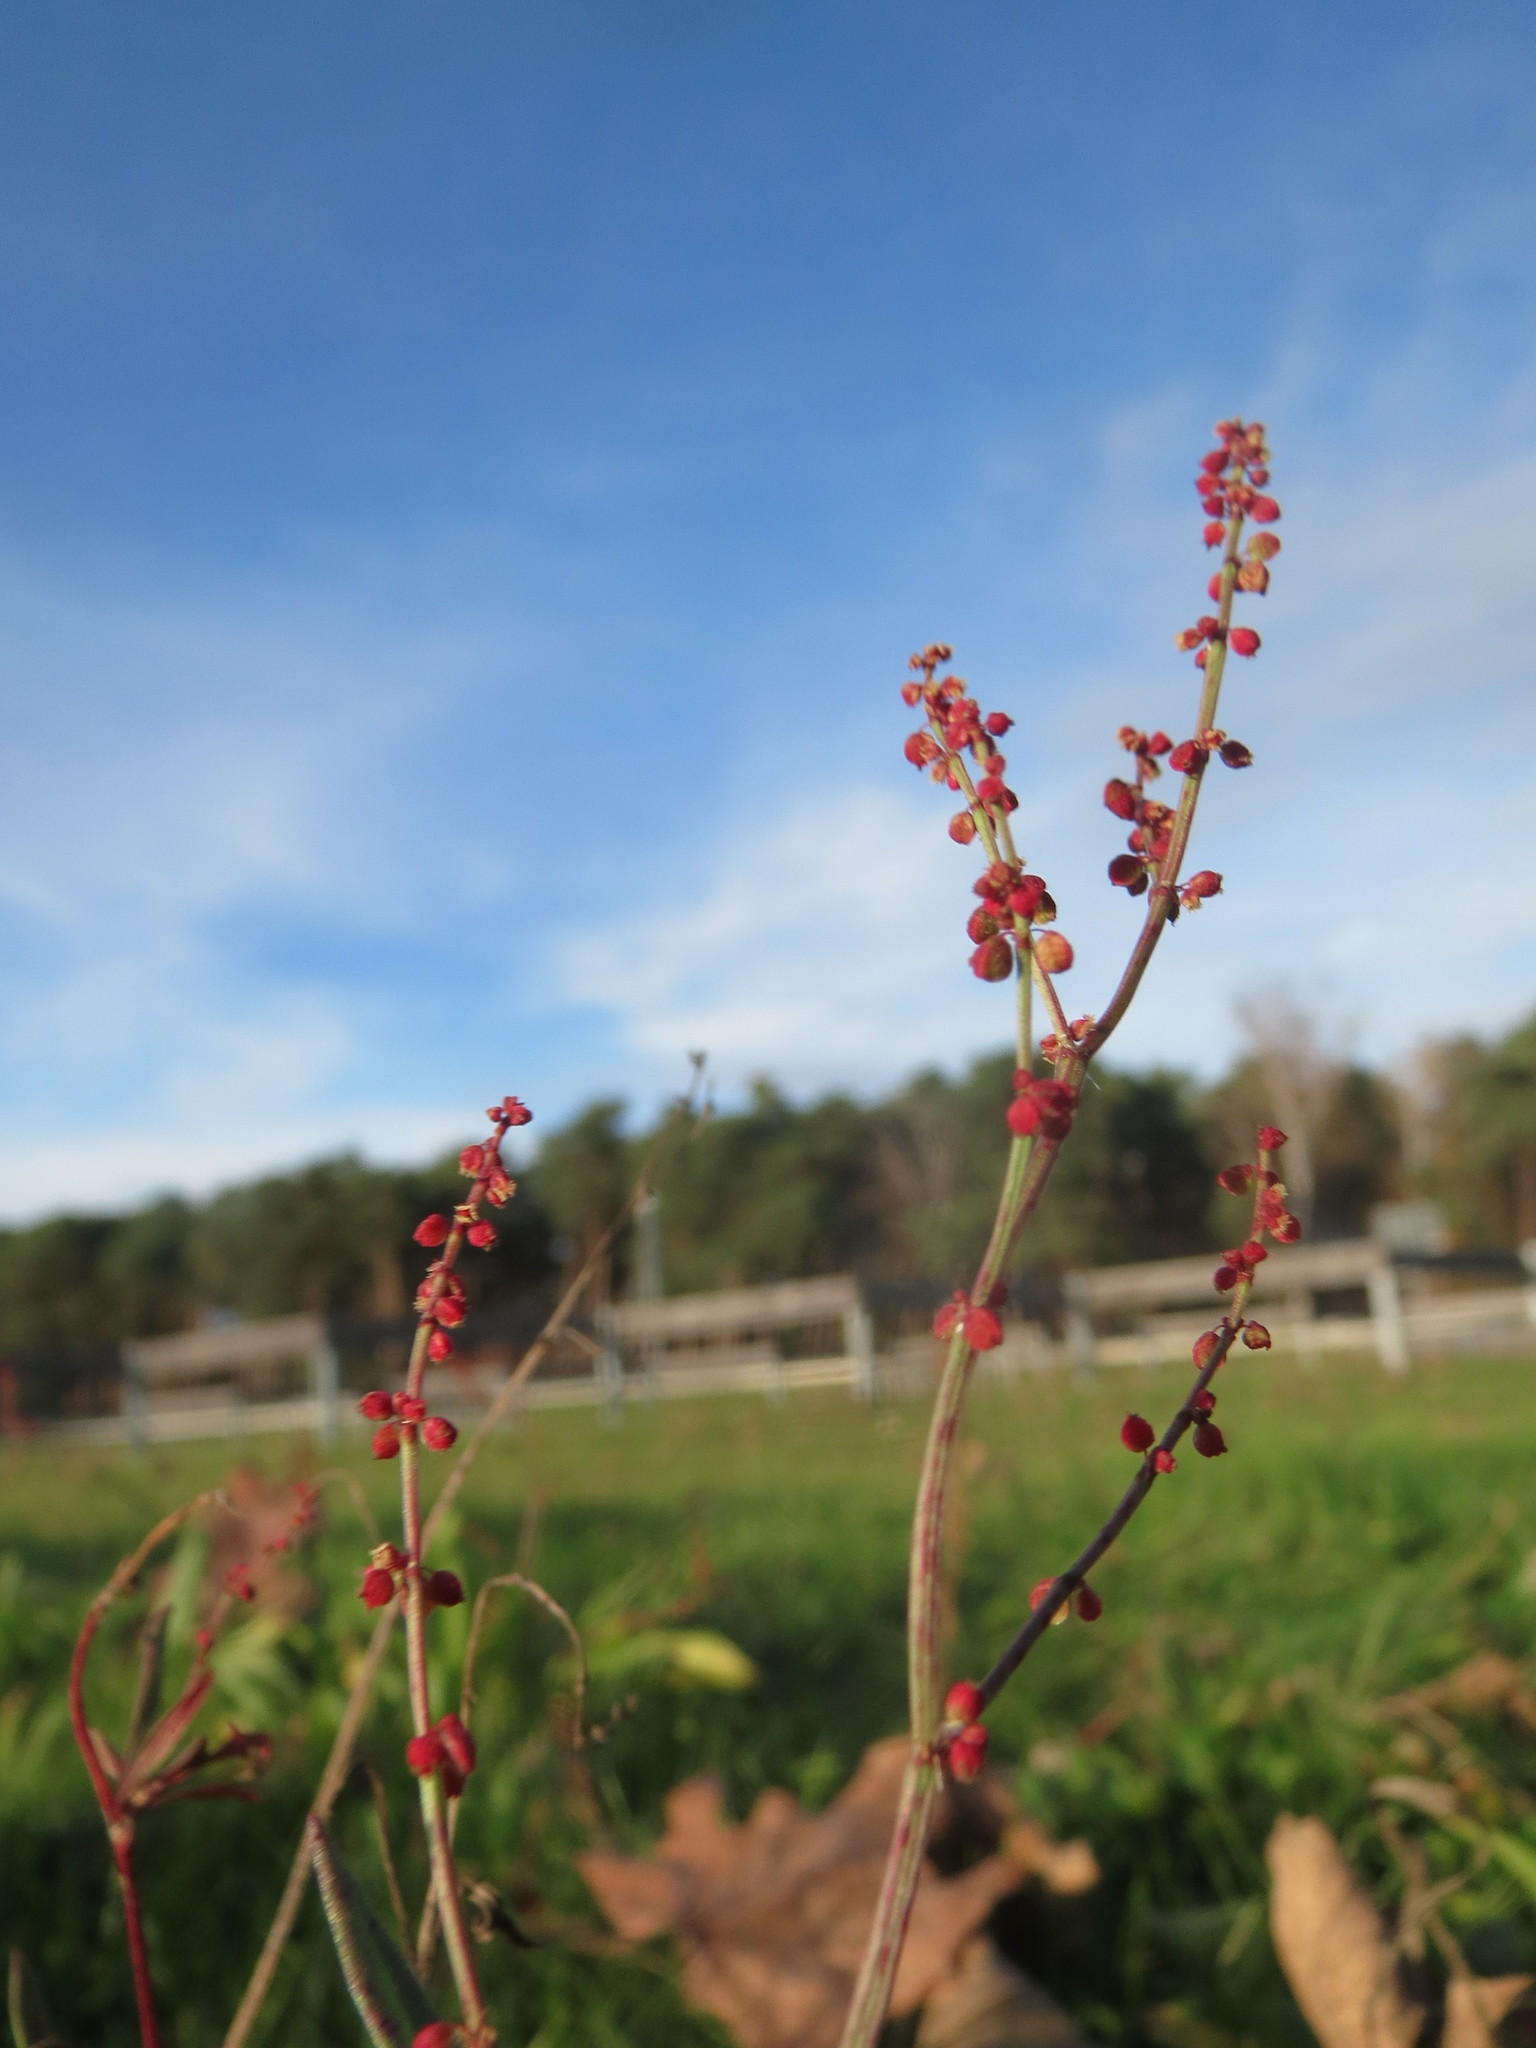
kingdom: Plantae
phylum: Tracheophyta
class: Magnoliopsida
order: Caryophyllales
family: Polygonaceae
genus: Rumex
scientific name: Rumex acetosella
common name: Common sheep sorrel
